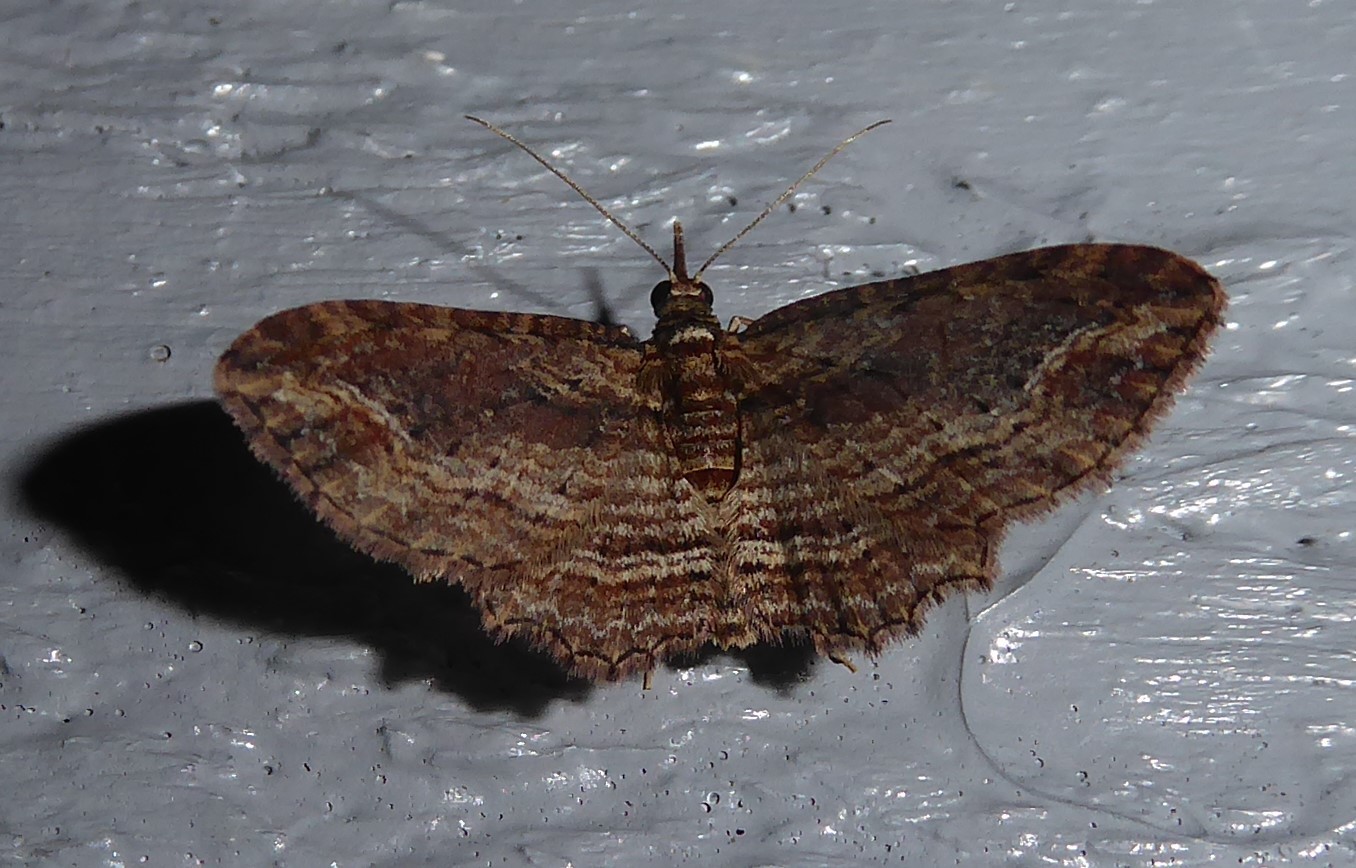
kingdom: Animalia
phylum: Arthropoda
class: Insecta
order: Lepidoptera
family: Geometridae
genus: Chloroclystis
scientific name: Chloroclystis filata
